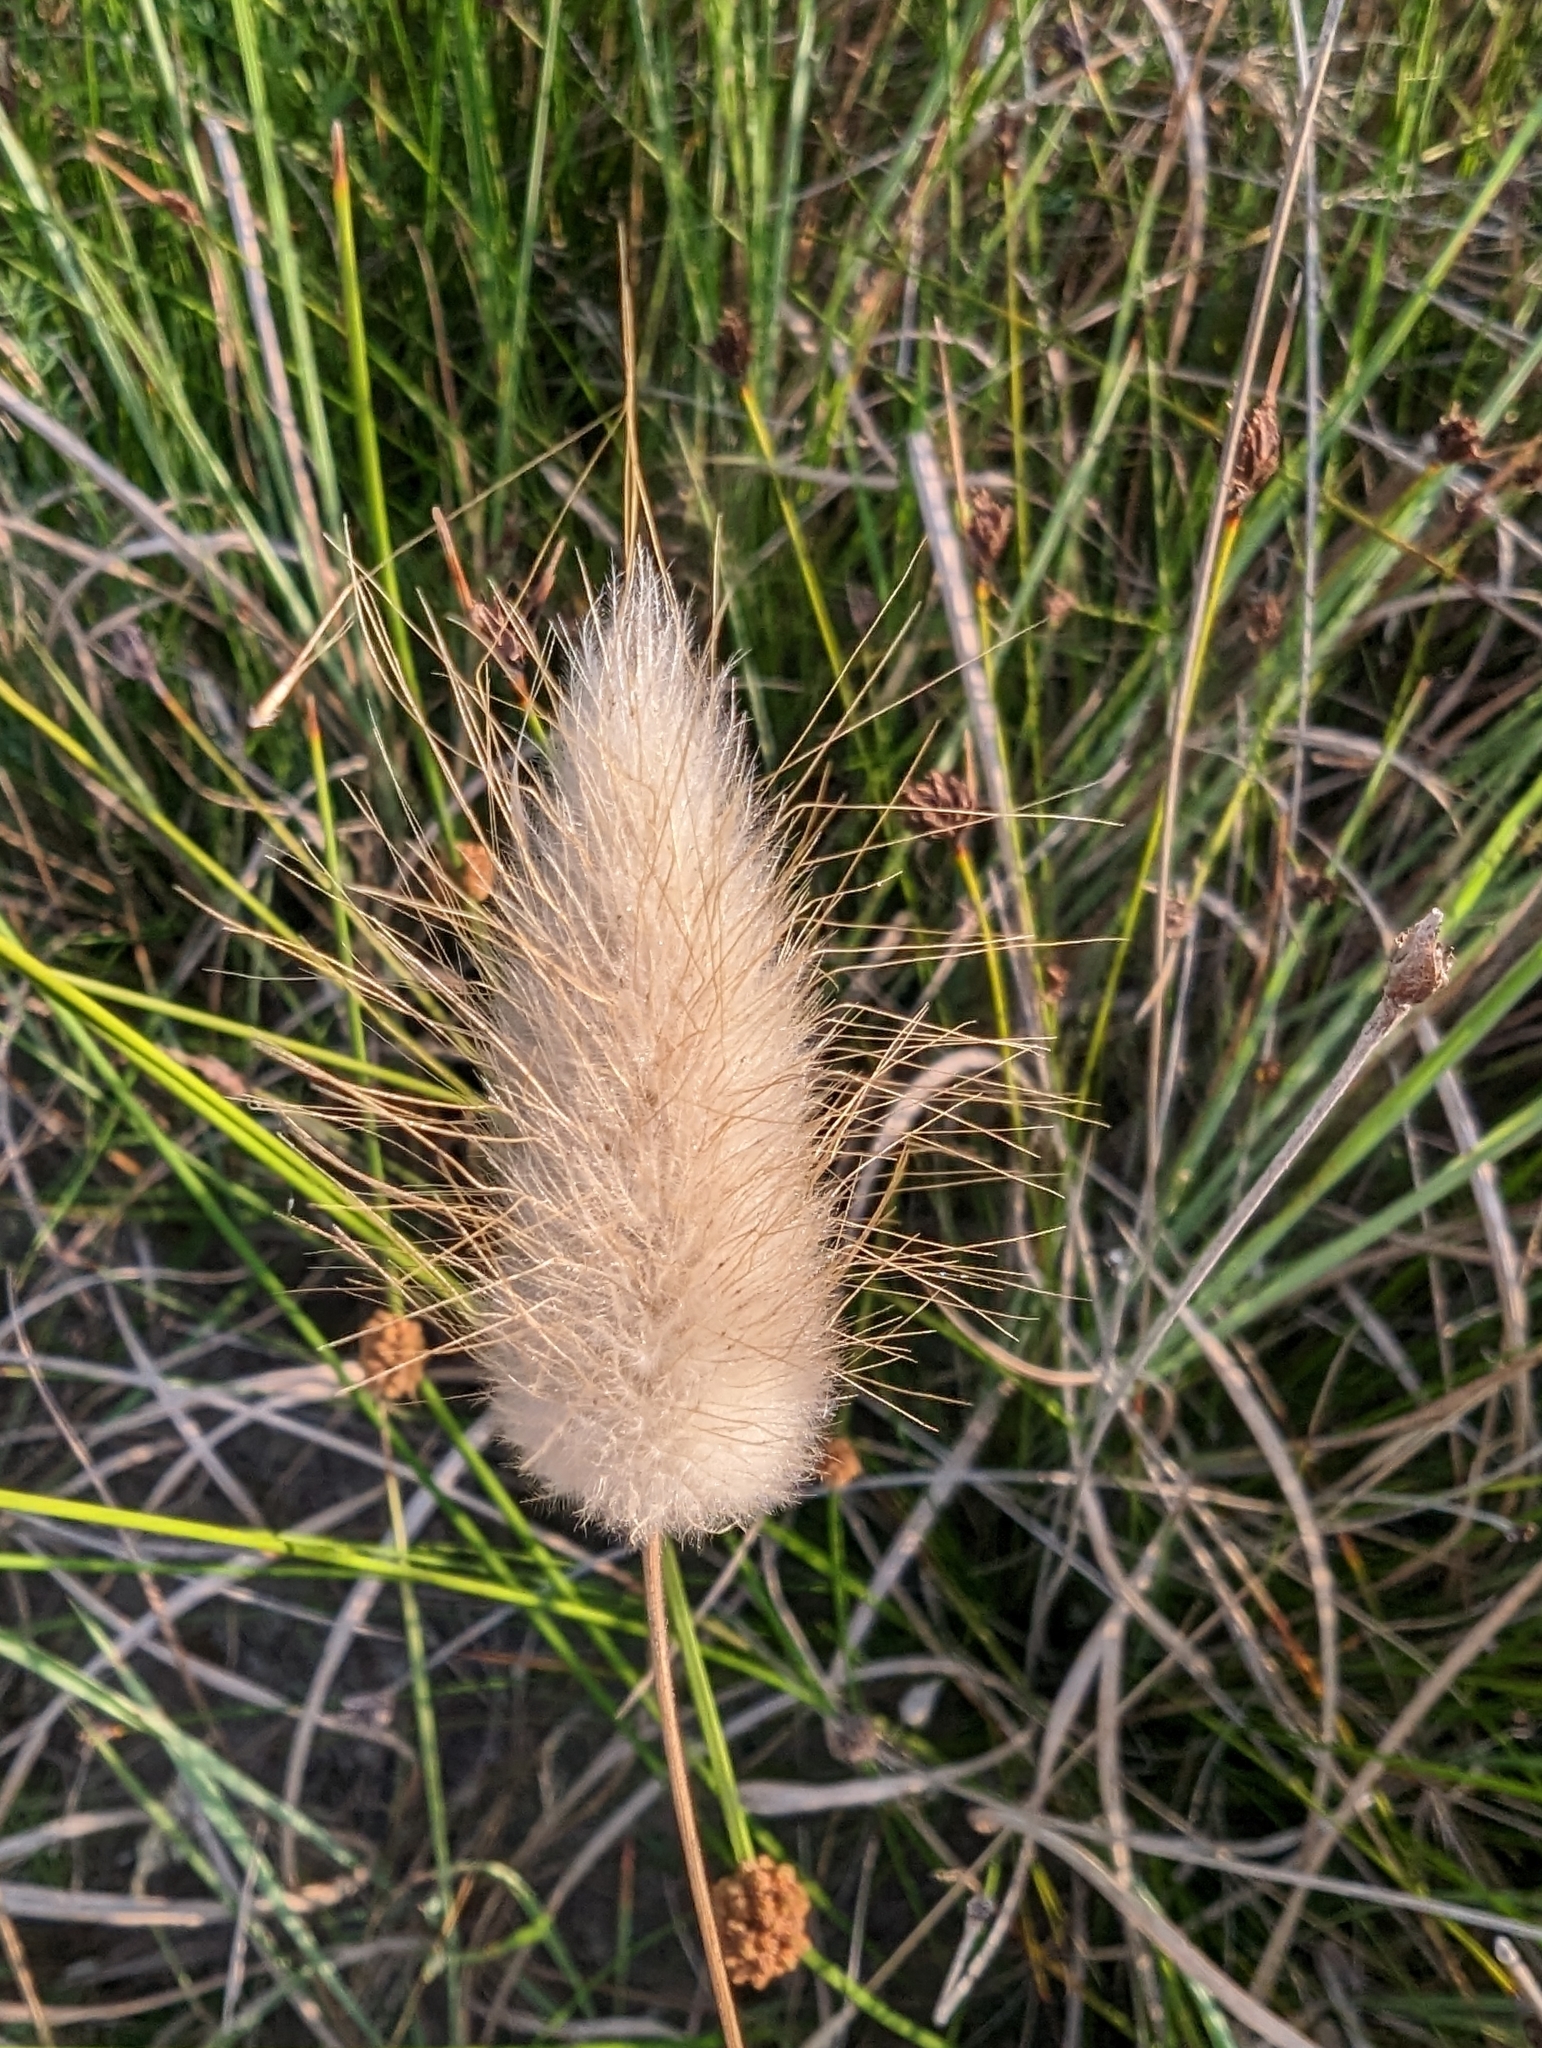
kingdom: Plantae
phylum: Tracheophyta
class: Liliopsida
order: Poales
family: Poaceae
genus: Lagurus
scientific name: Lagurus ovatus
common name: Hare's-tail
